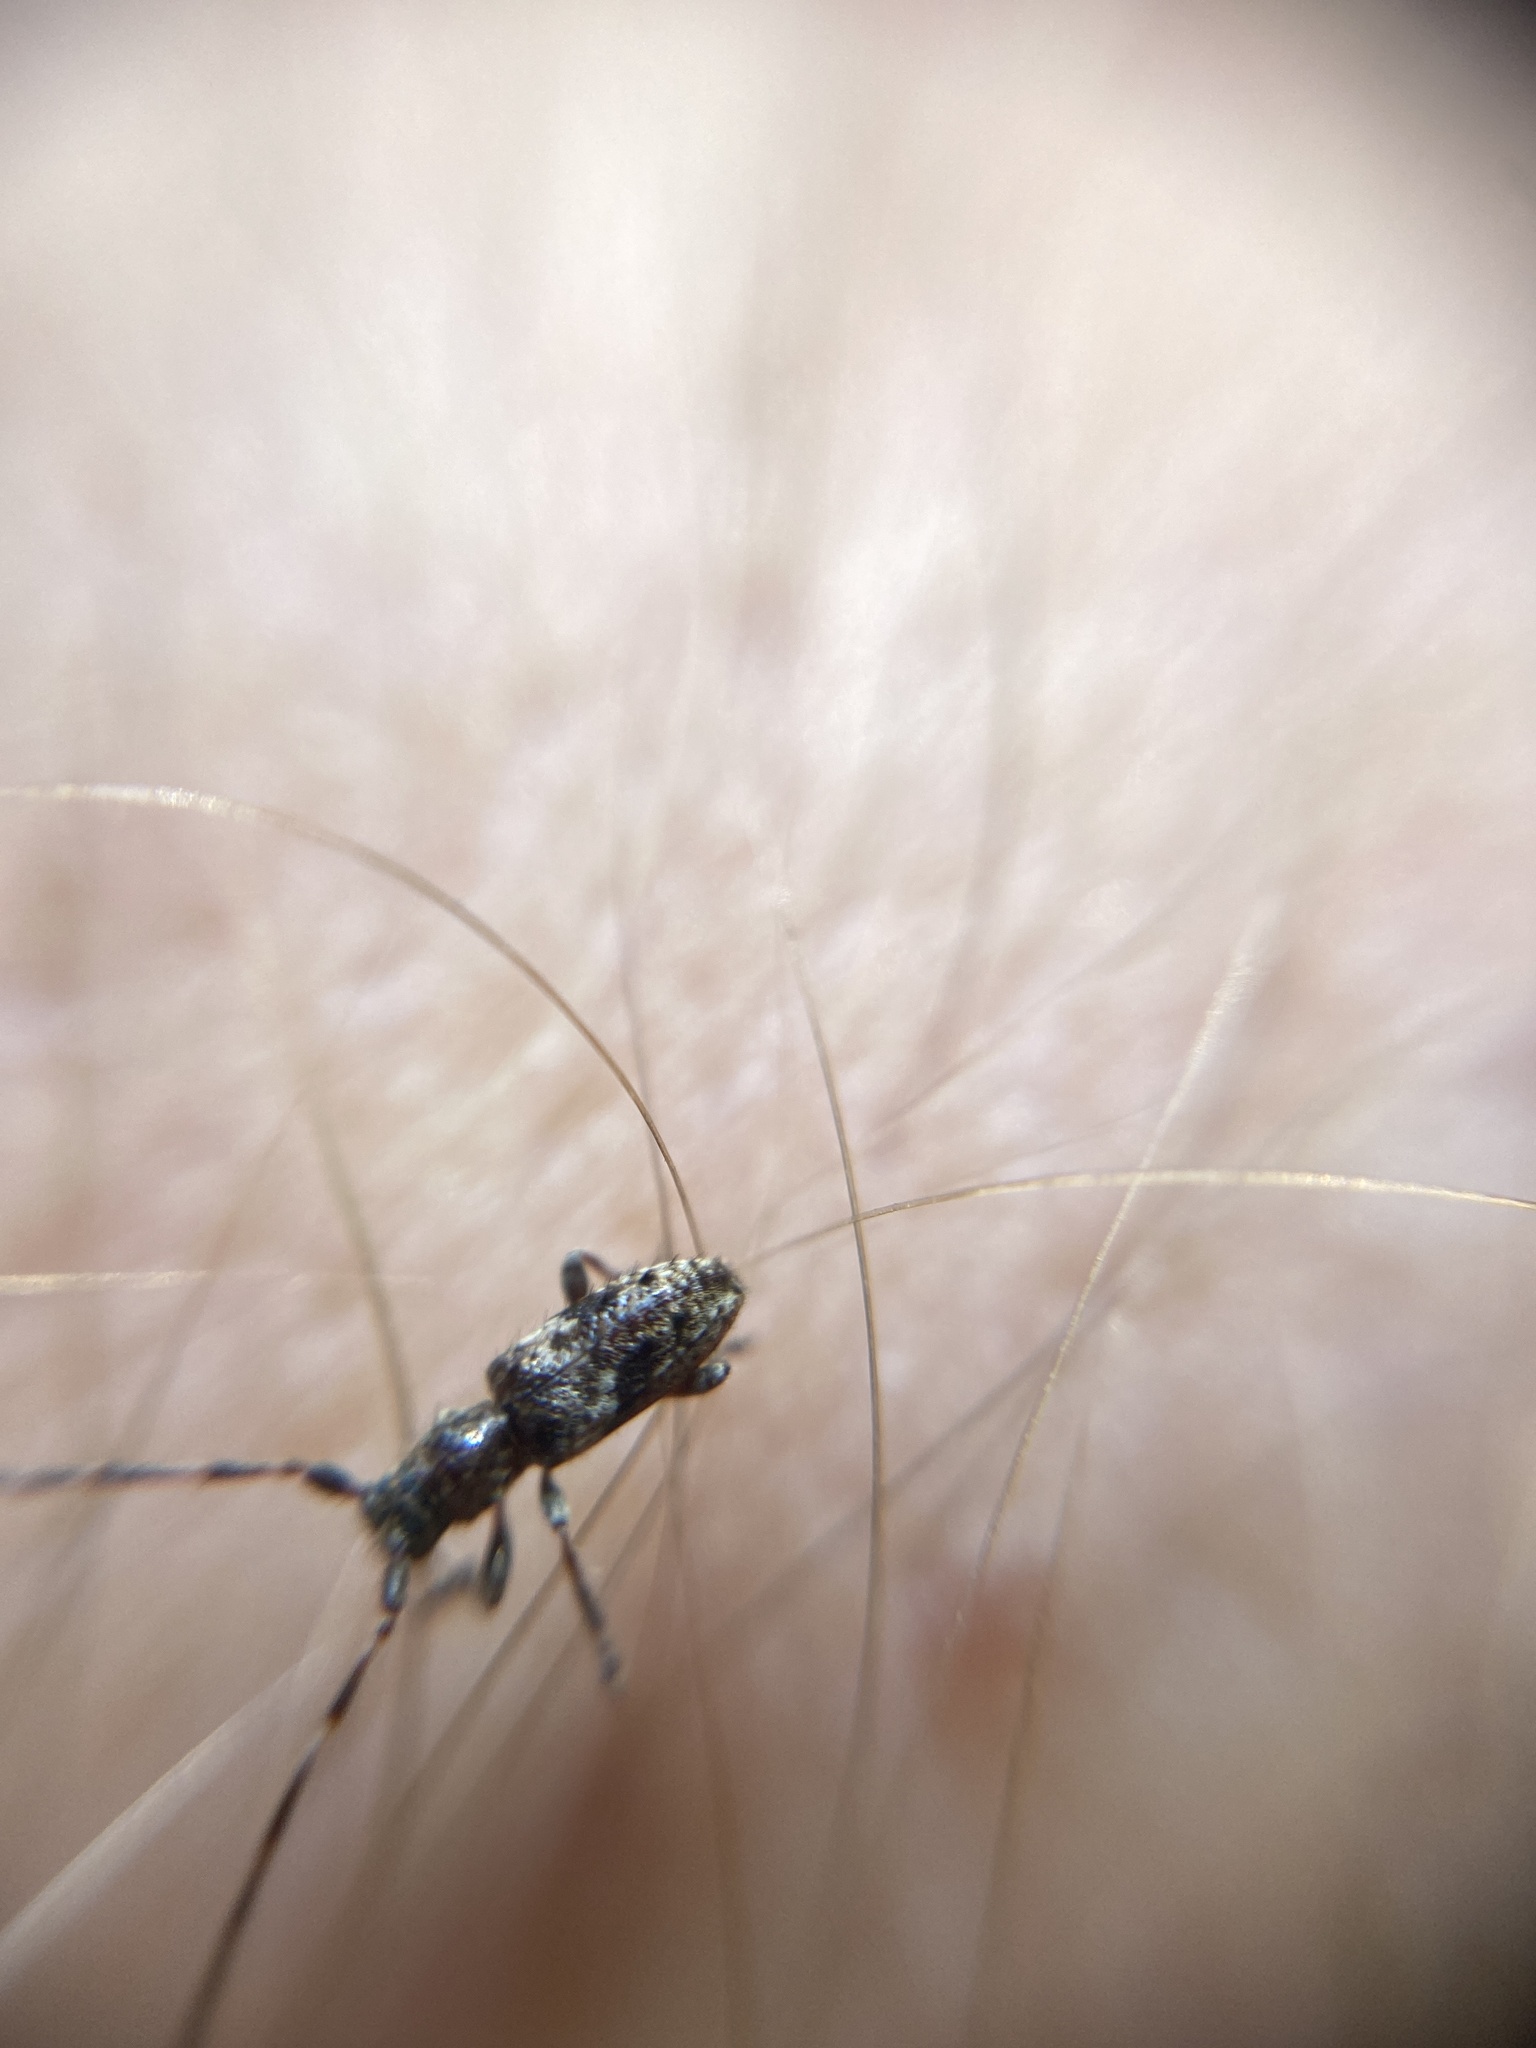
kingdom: Animalia
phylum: Arthropoda
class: Insecta
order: Coleoptera
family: Cerambycidae
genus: Pogonocherus
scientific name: Pogonocherus decoratus
